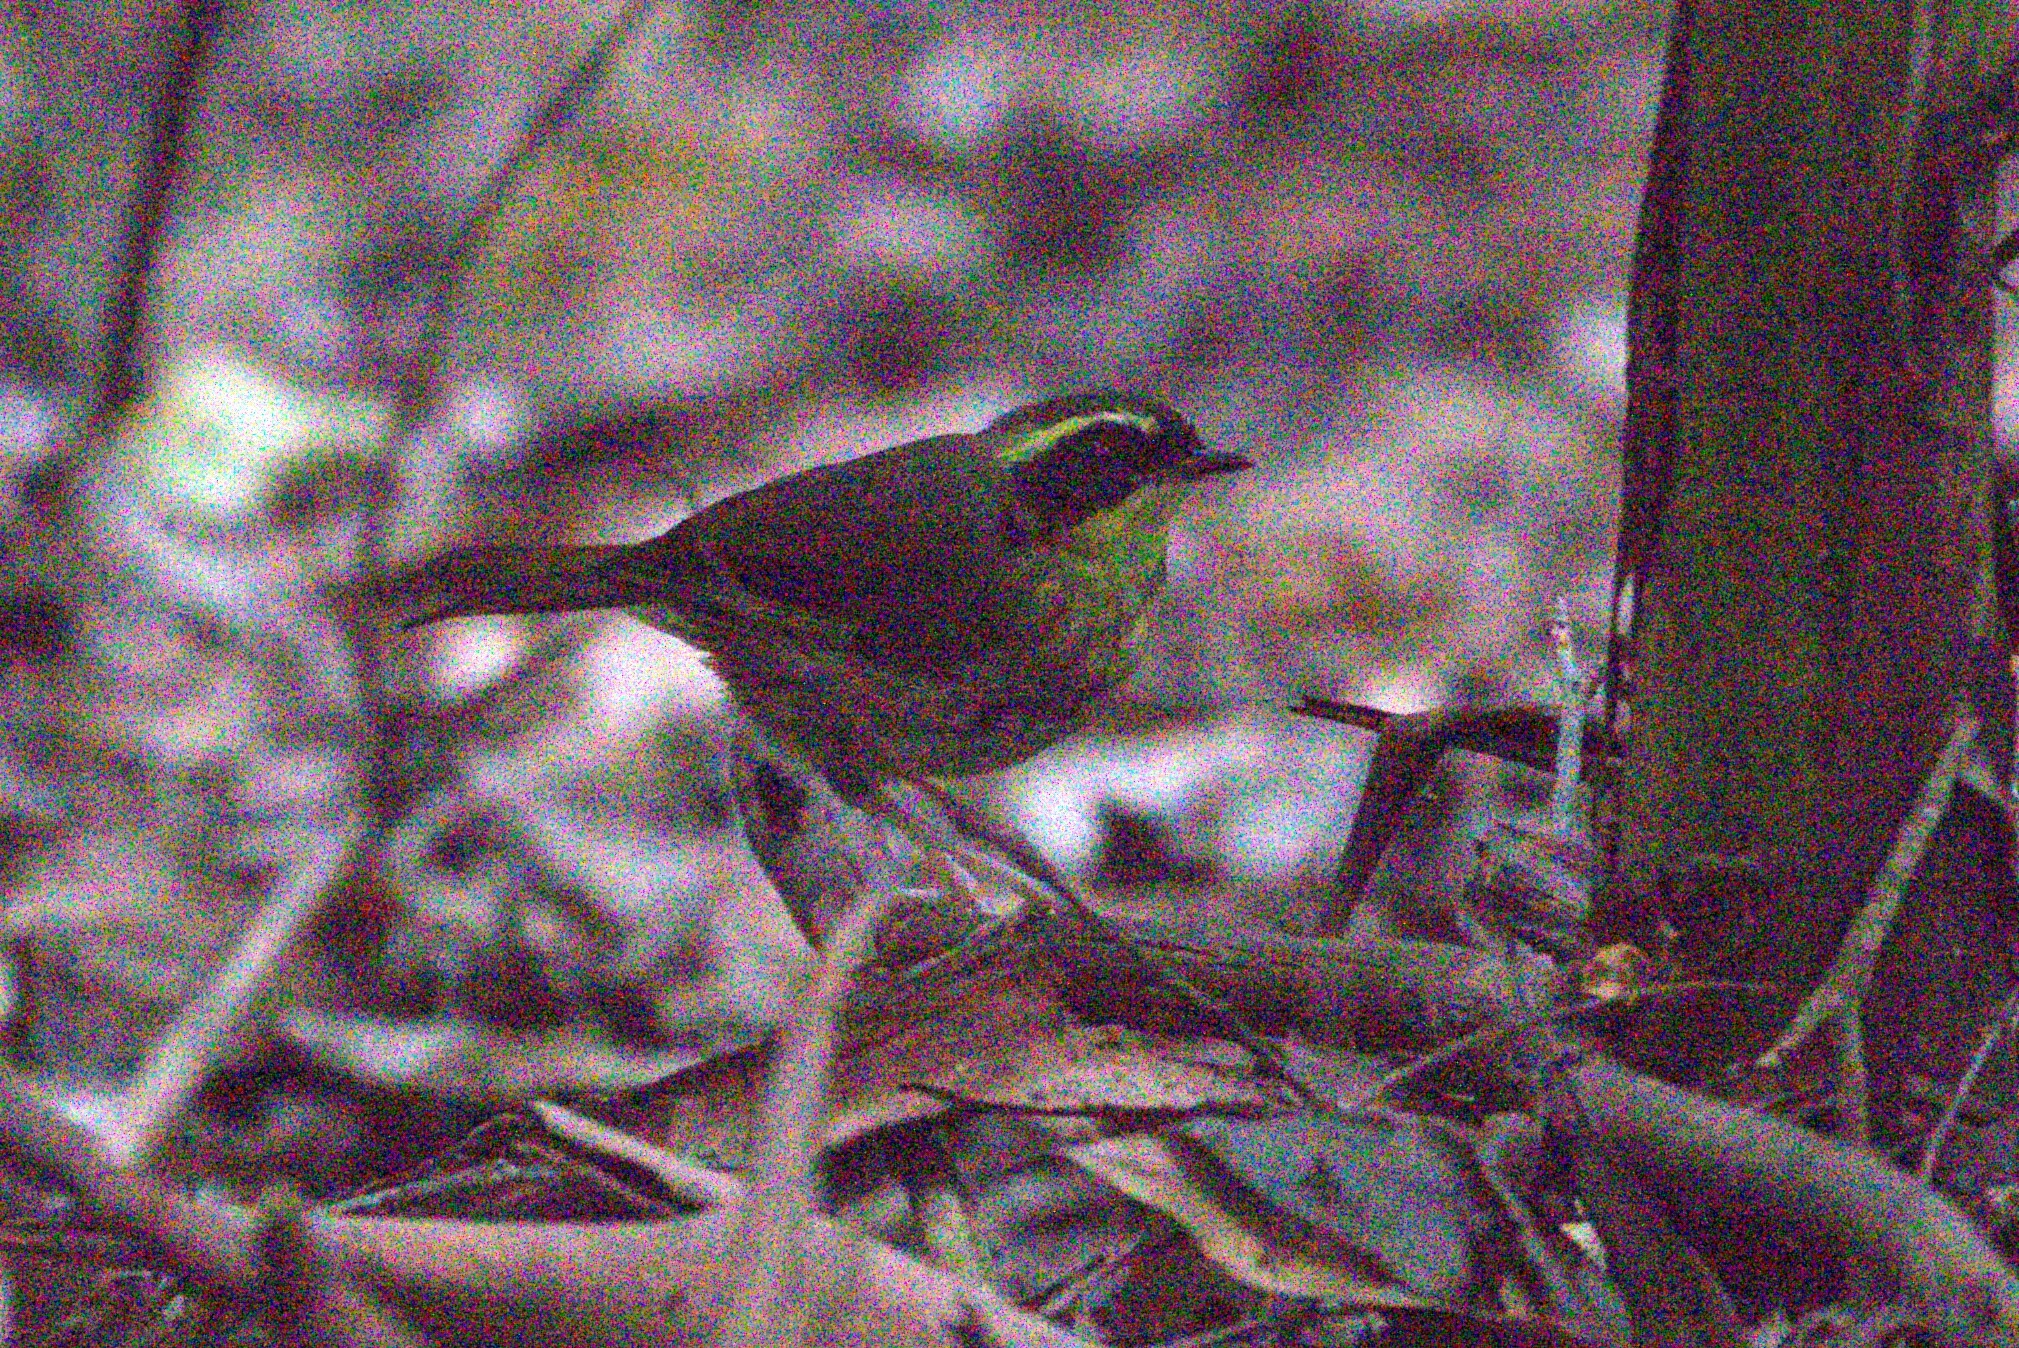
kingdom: Animalia
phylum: Chordata
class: Aves
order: Passeriformes
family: Acanthizidae
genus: Sericornis
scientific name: Sericornis citreogularis
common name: Yellow-throated scrubwren
